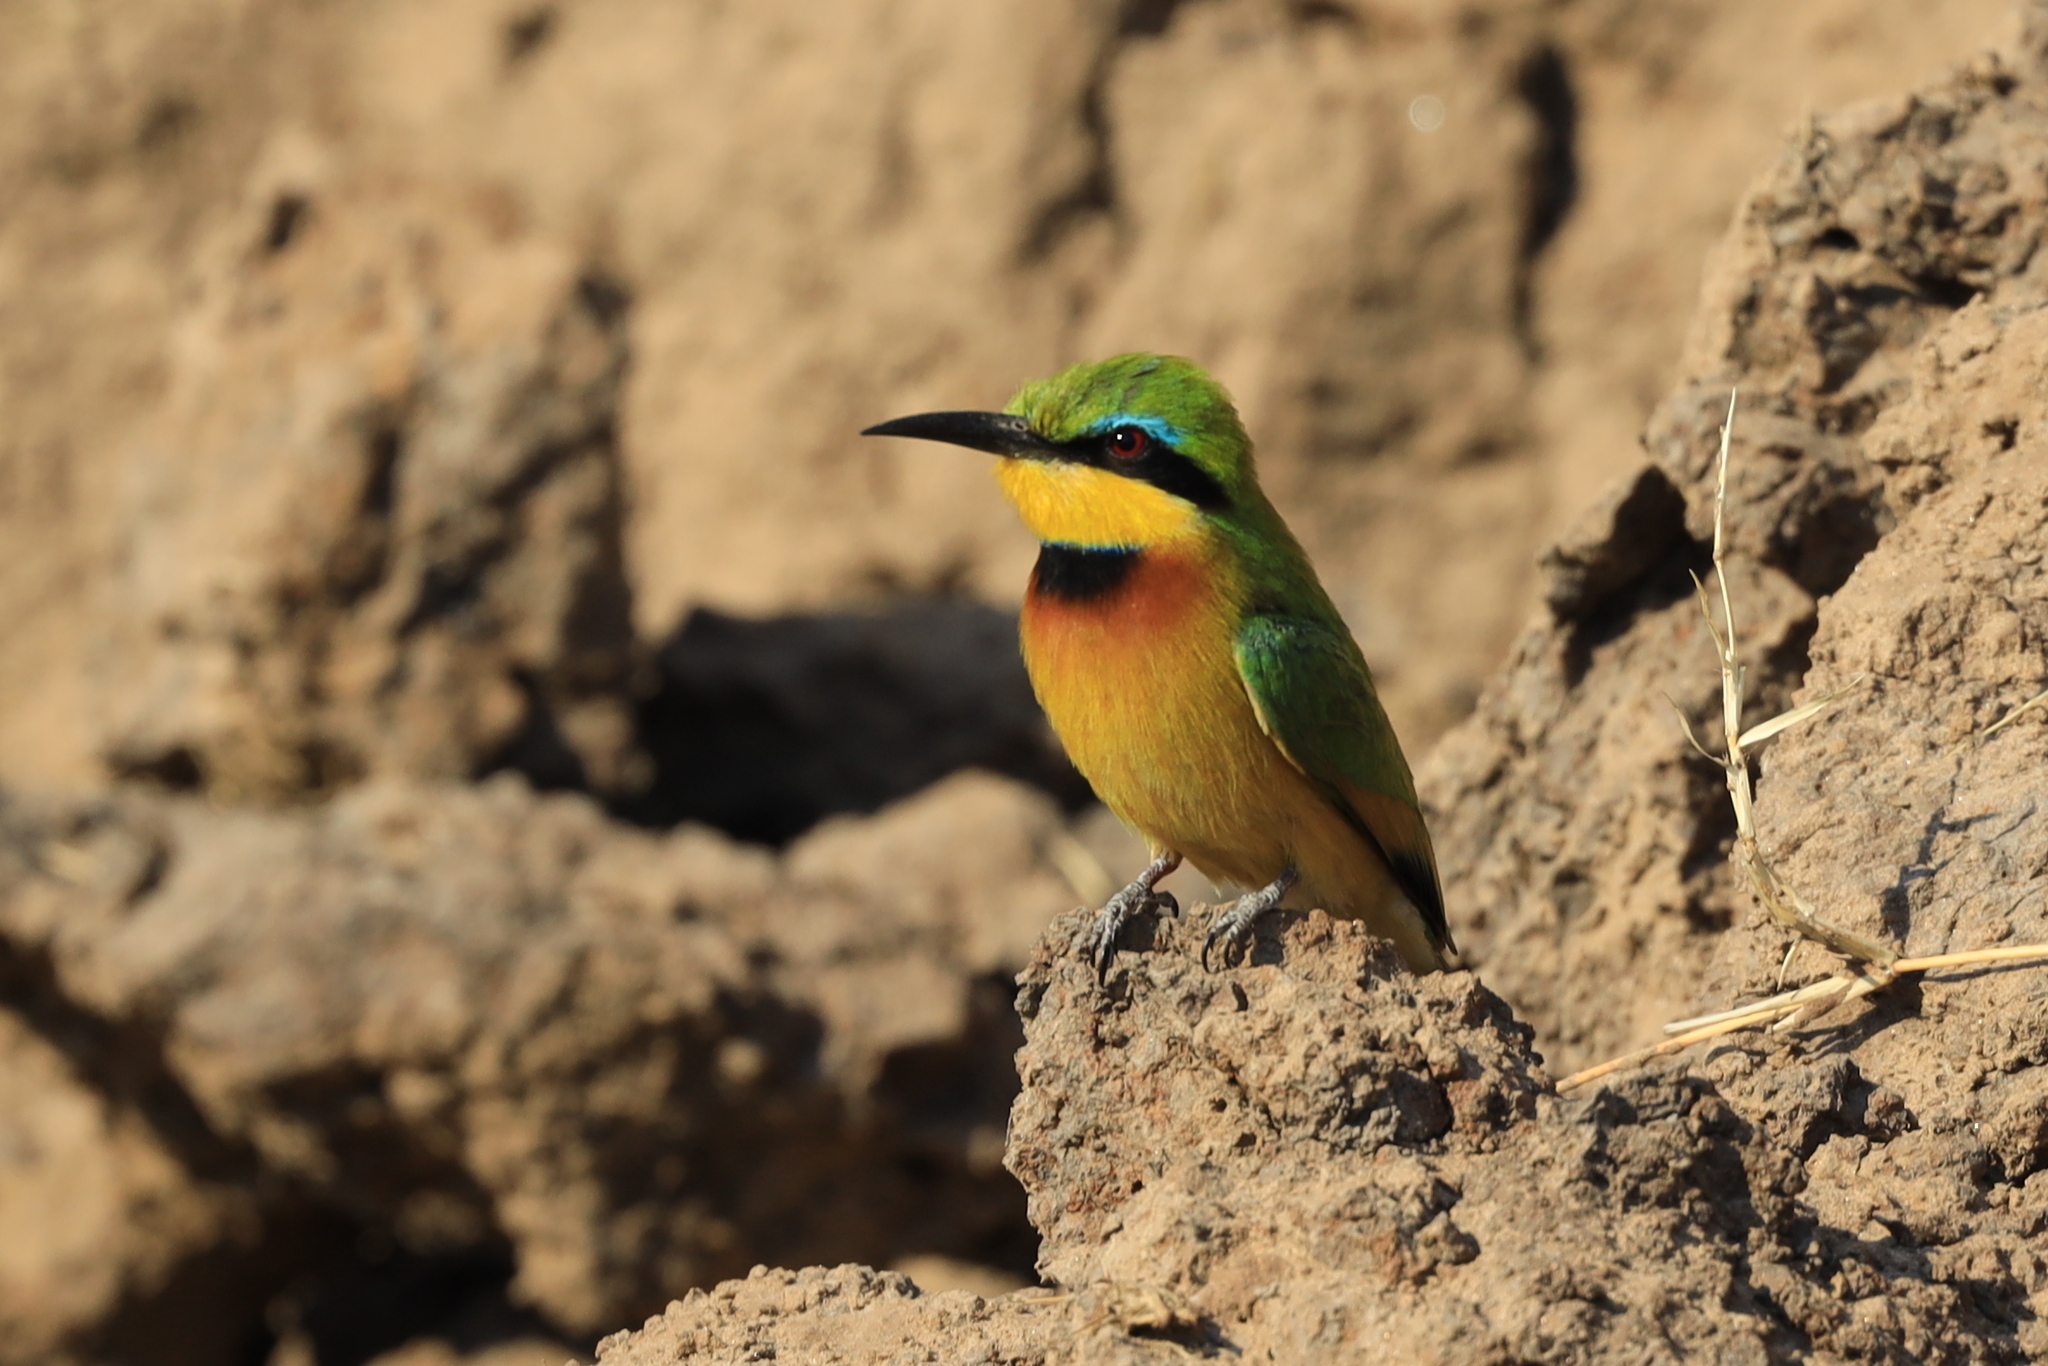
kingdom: Animalia
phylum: Chordata
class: Aves
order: Coraciiformes
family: Meropidae
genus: Merops
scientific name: Merops pusillus
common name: Little bee-eater
